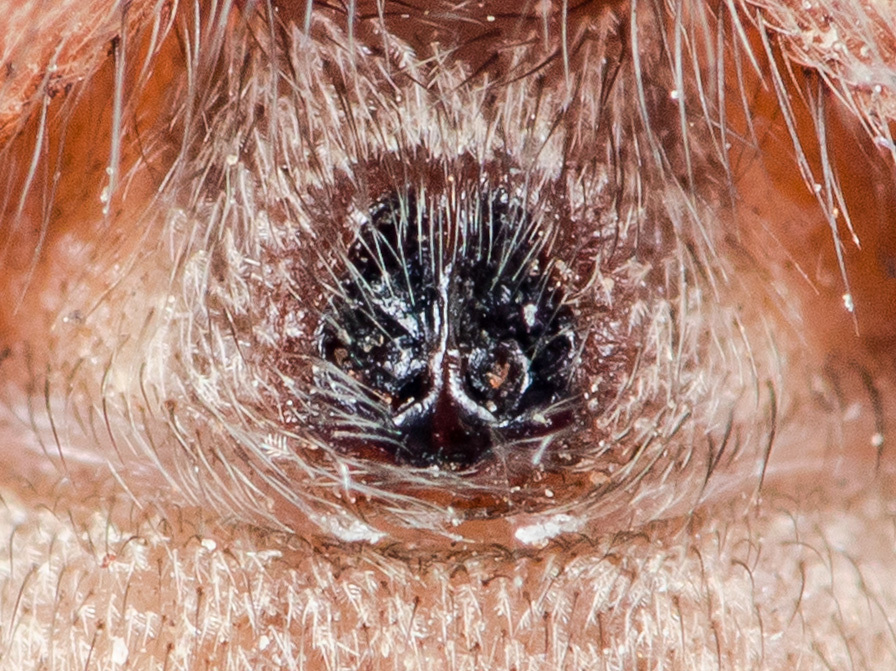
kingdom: Animalia
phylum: Arthropoda
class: Arachnida
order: Araneae
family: Gnaphosidae
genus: Nomisia
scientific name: Nomisia aussereri
